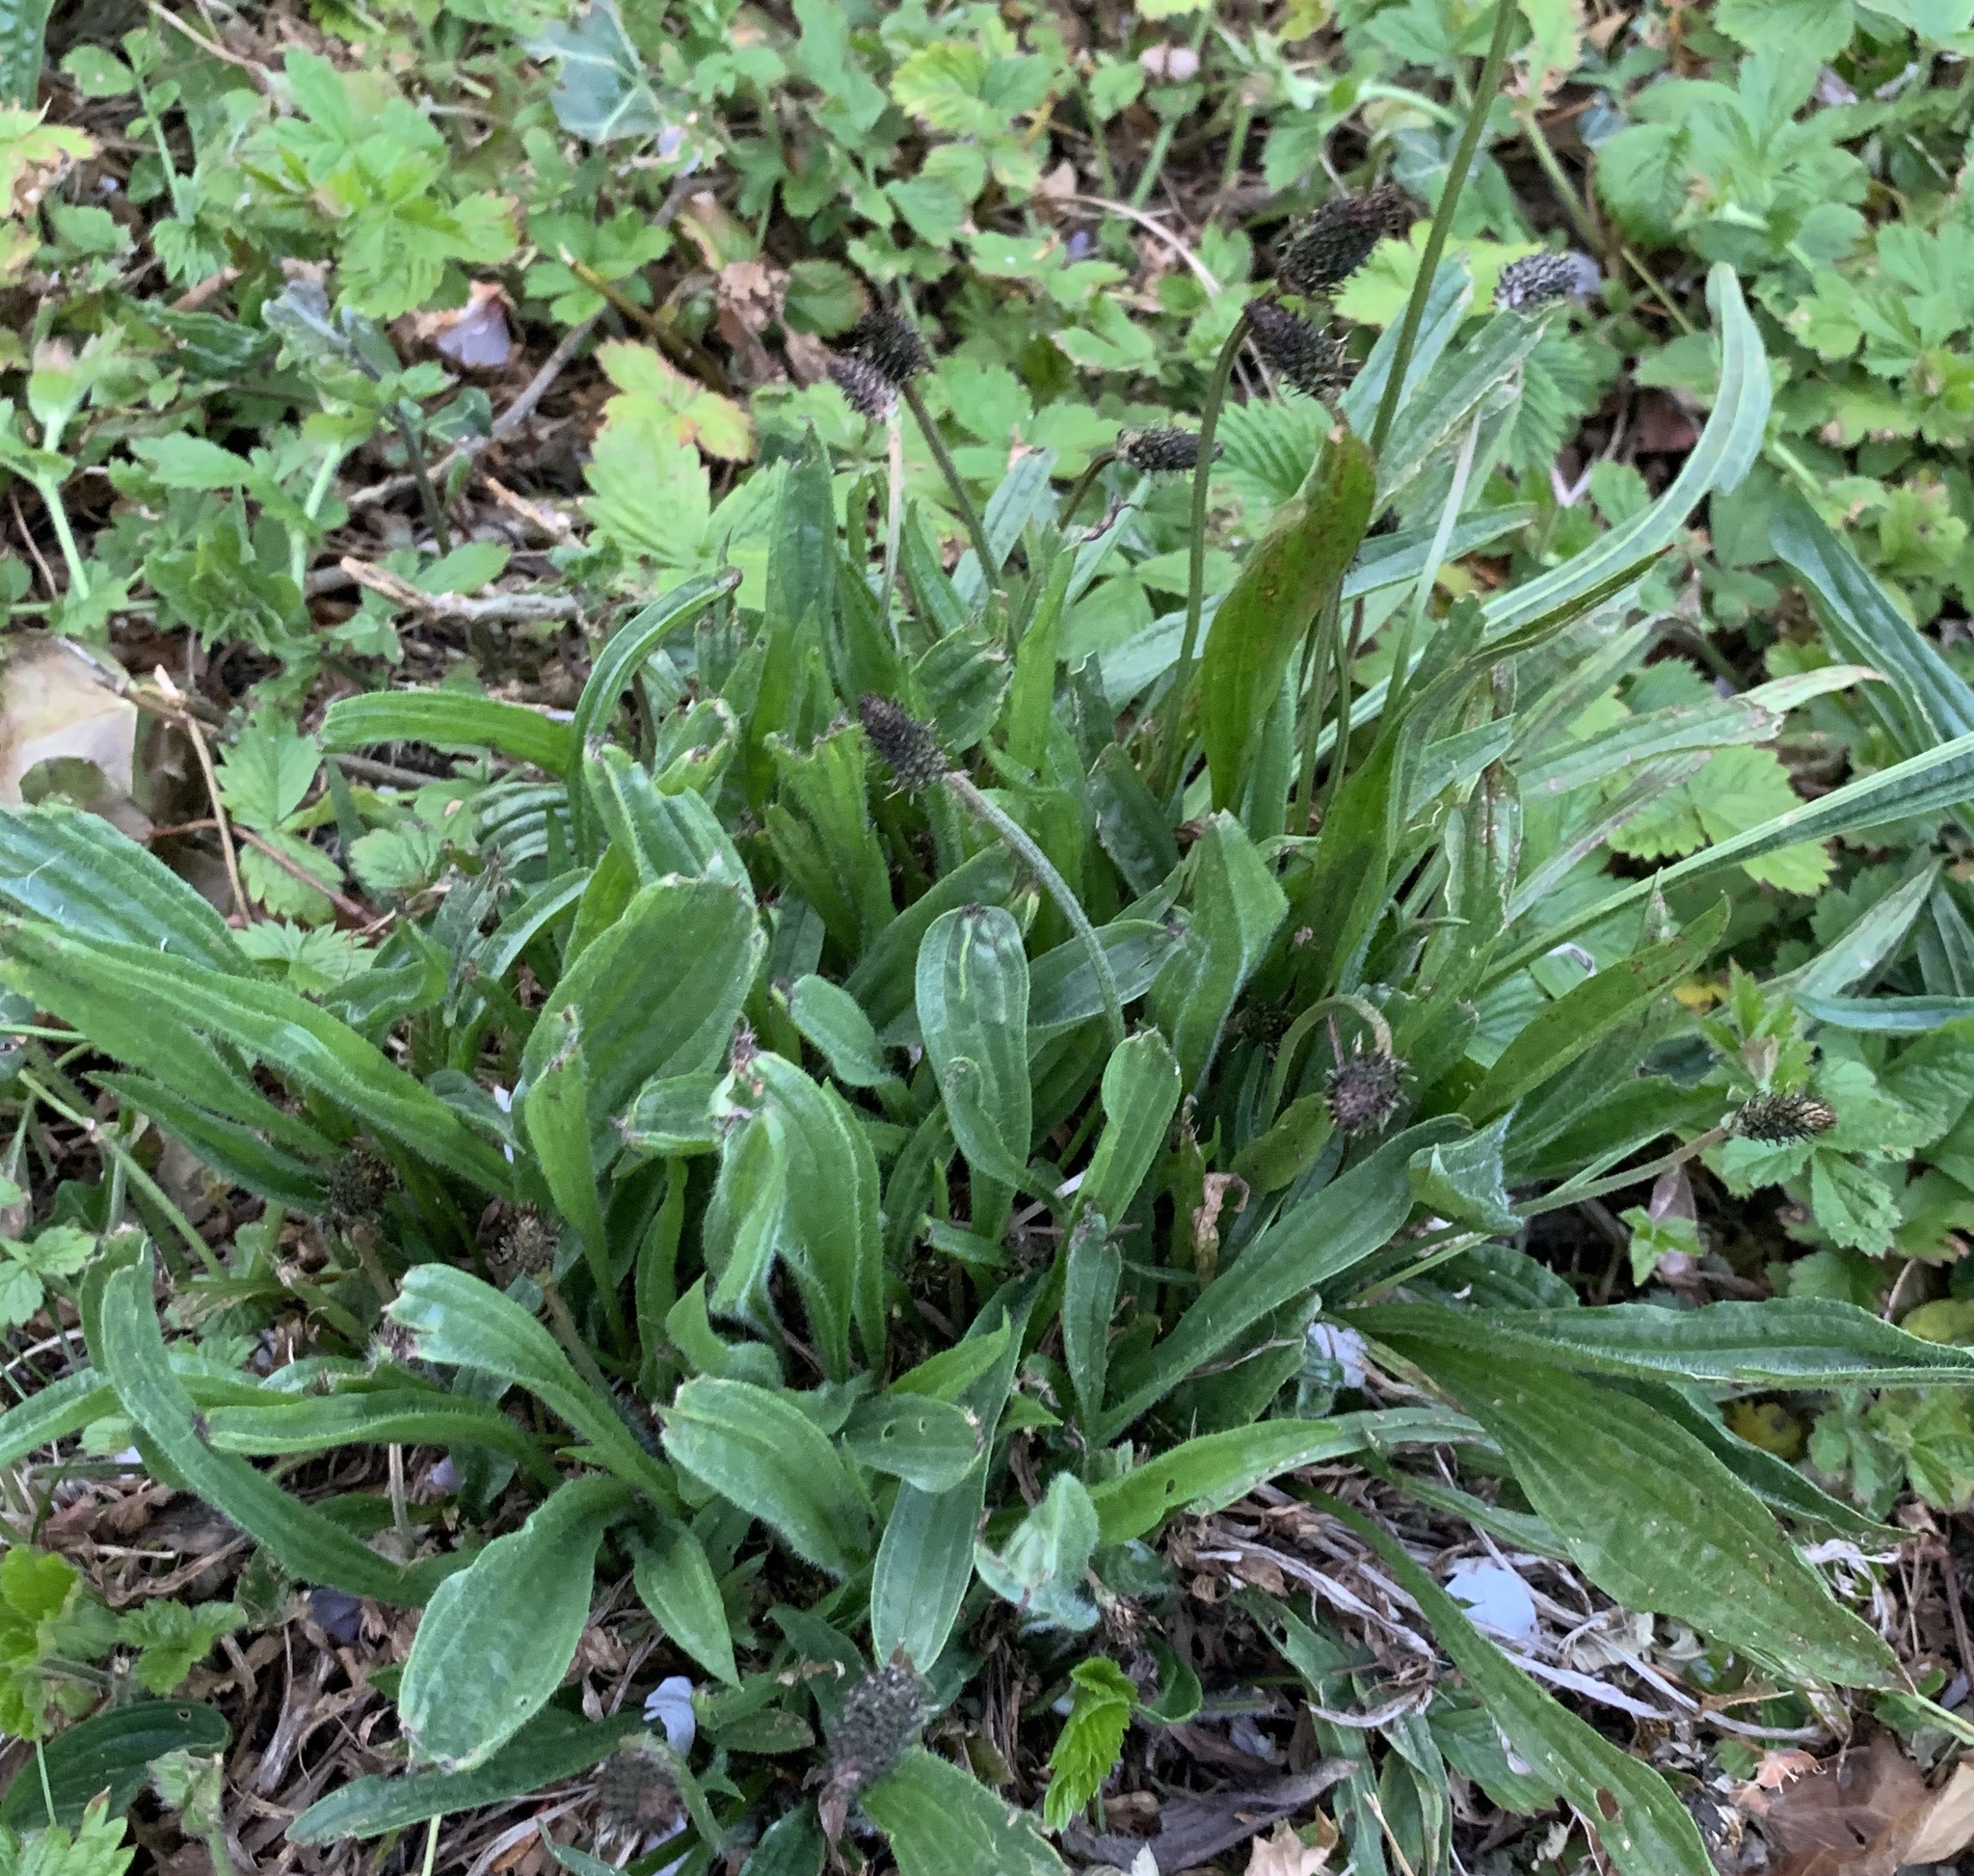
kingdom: Plantae
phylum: Tracheophyta
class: Magnoliopsida
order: Lamiales
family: Plantaginaceae
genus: Plantago
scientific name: Plantago lanceolata
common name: Ribwort plantain
